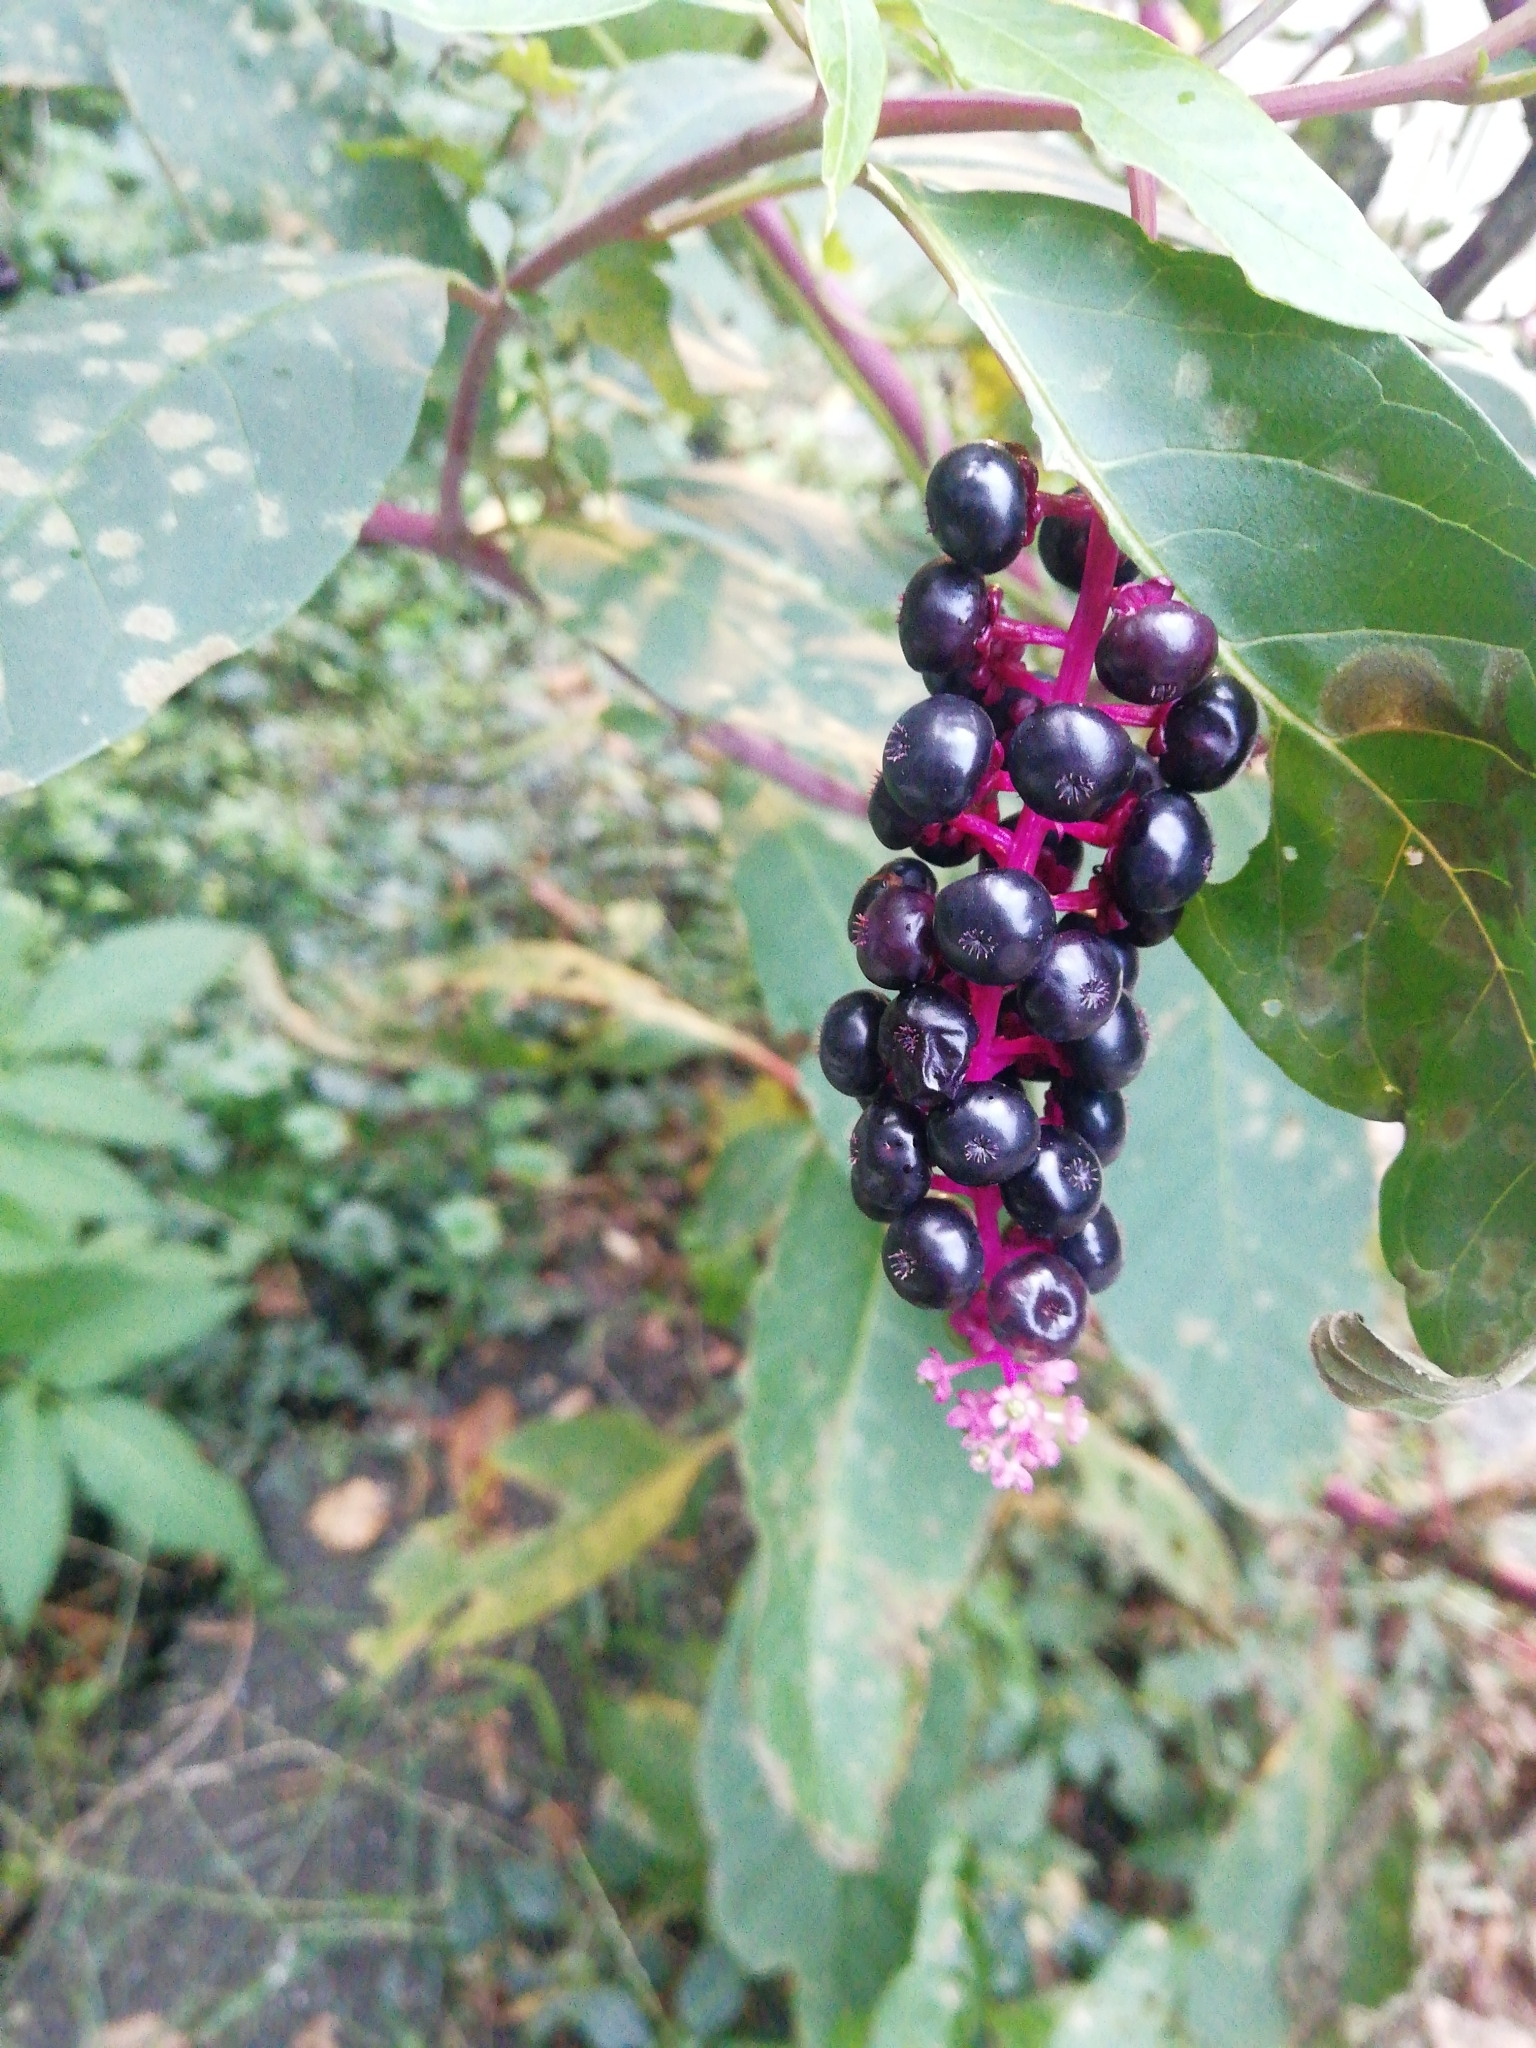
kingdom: Plantae
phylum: Tracheophyta
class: Magnoliopsida
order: Caryophyllales
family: Phytolaccaceae
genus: Phytolacca
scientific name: Phytolacca americana
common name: American pokeweed
